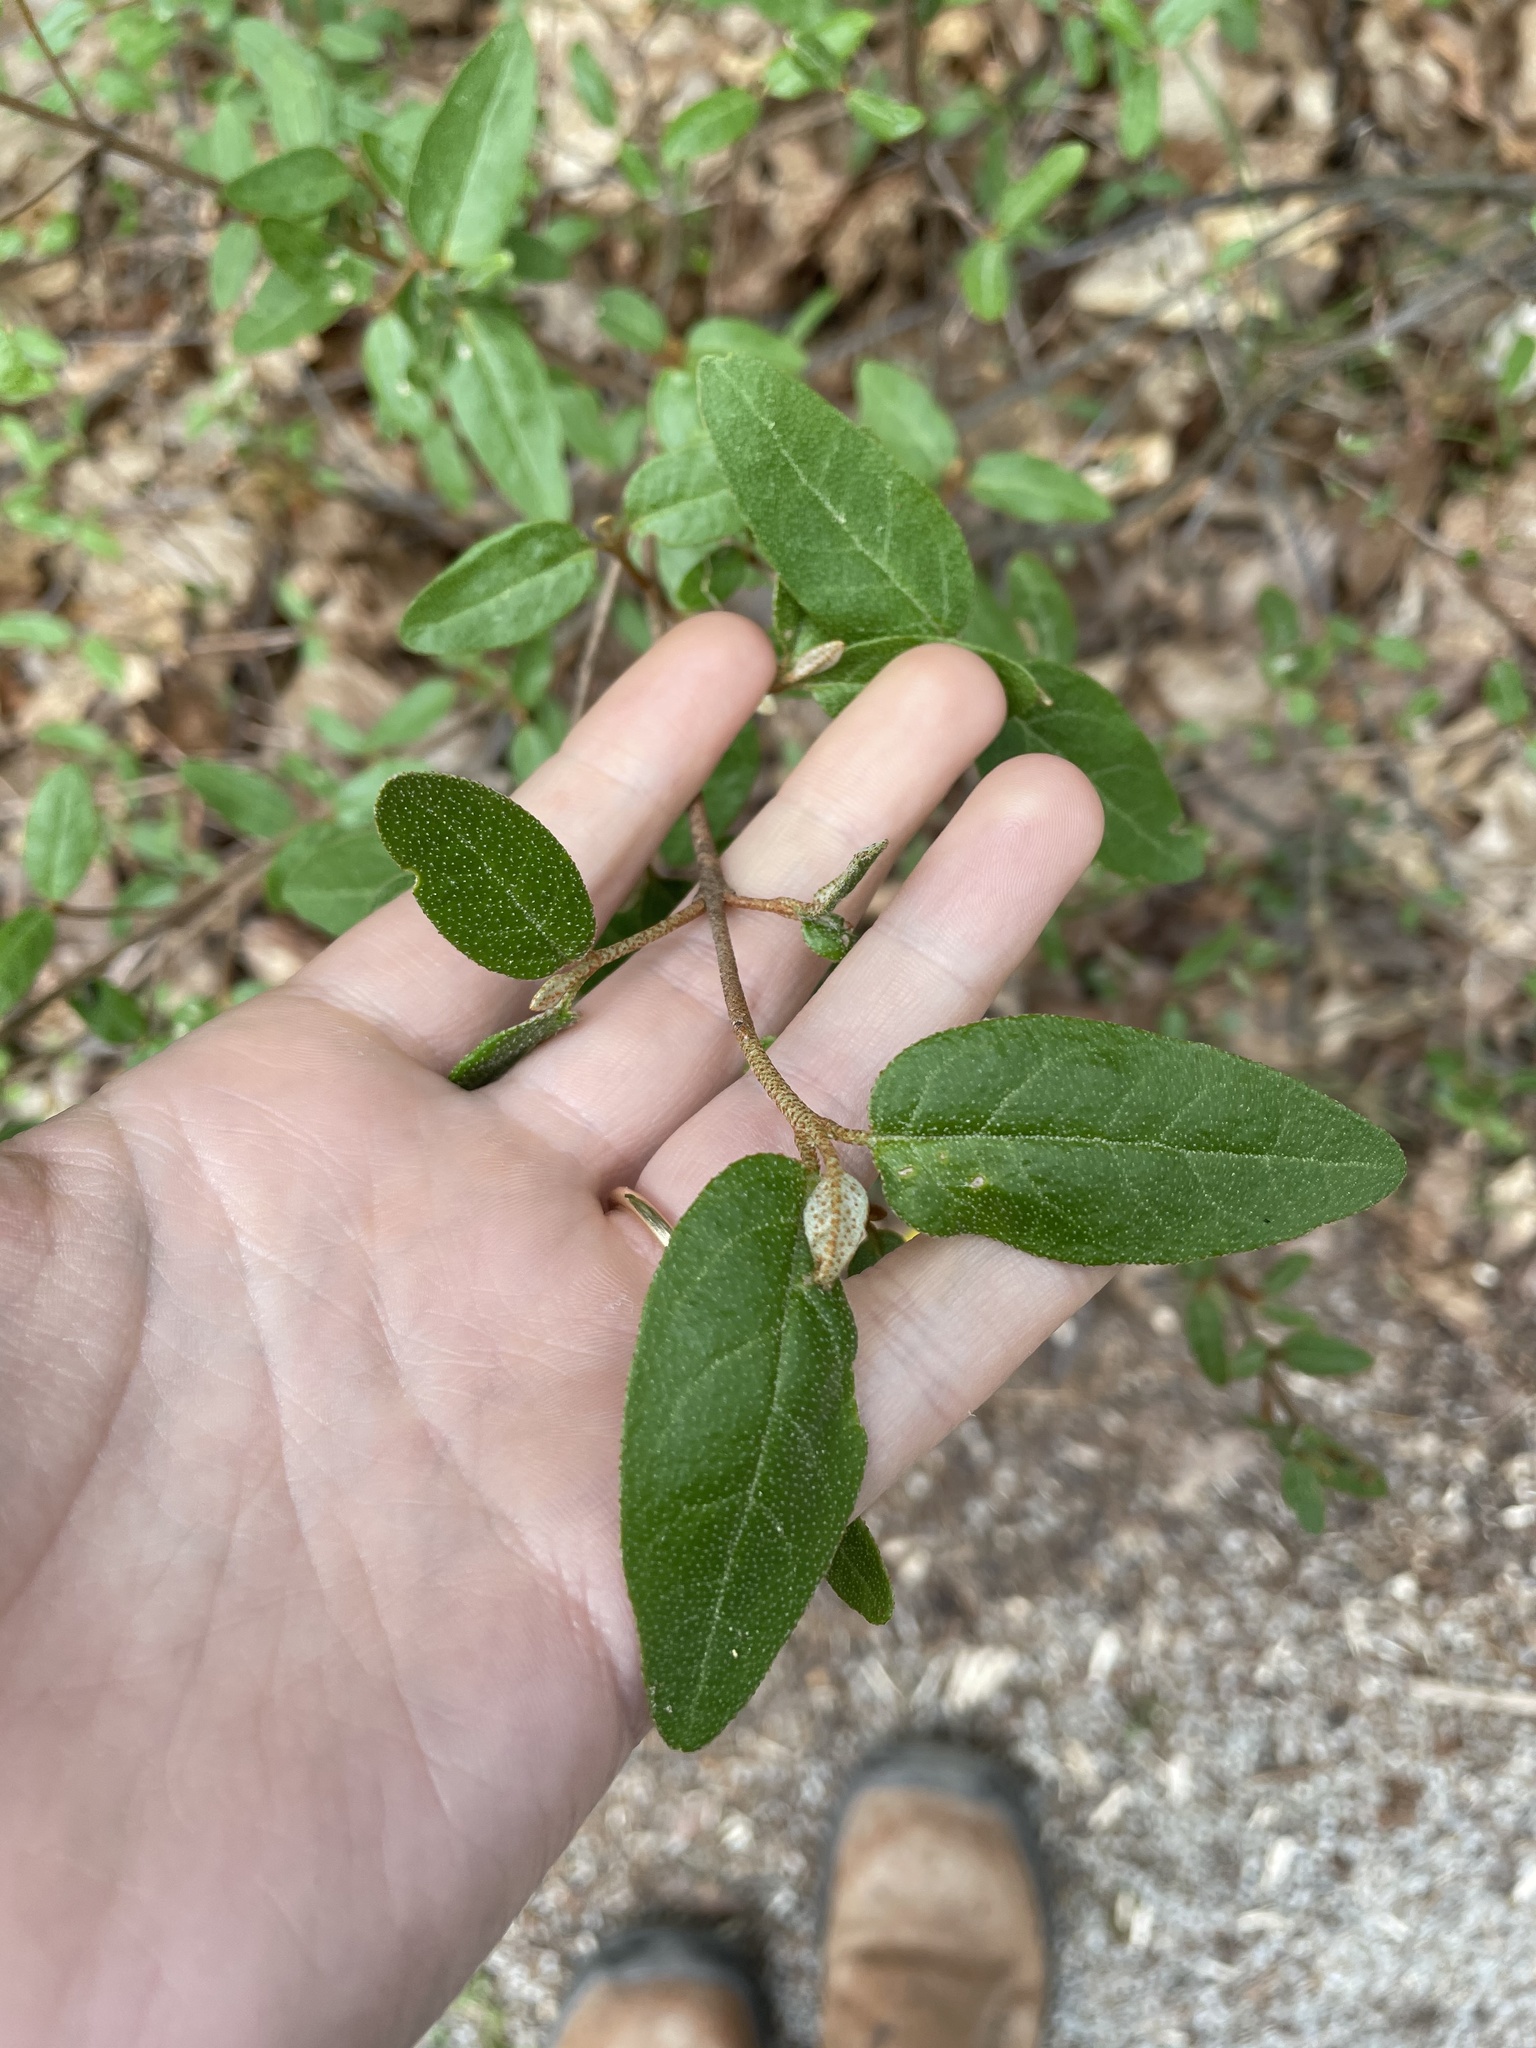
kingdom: Plantae
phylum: Tracheophyta
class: Magnoliopsida
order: Rosales
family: Elaeagnaceae
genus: Shepherdia
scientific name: Shepherdia canadensis
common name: Soapberry
